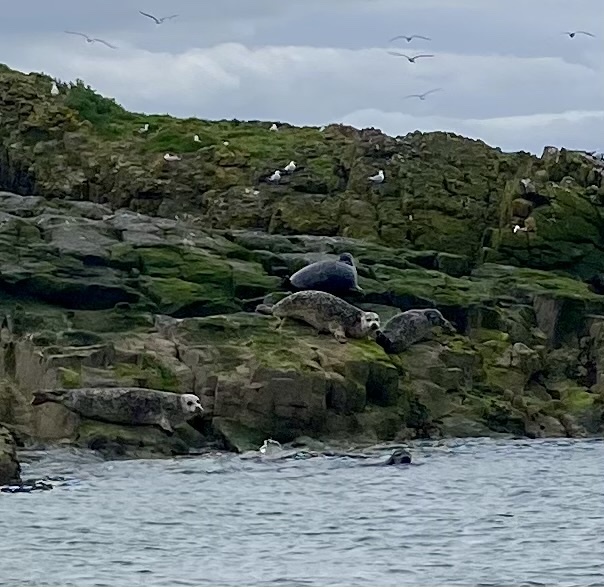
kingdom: Animalia
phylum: Chordata
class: Mammalia
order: Carnivora
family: Phocidae
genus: Phoca
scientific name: Phoca vitulina
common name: Harbor seal
